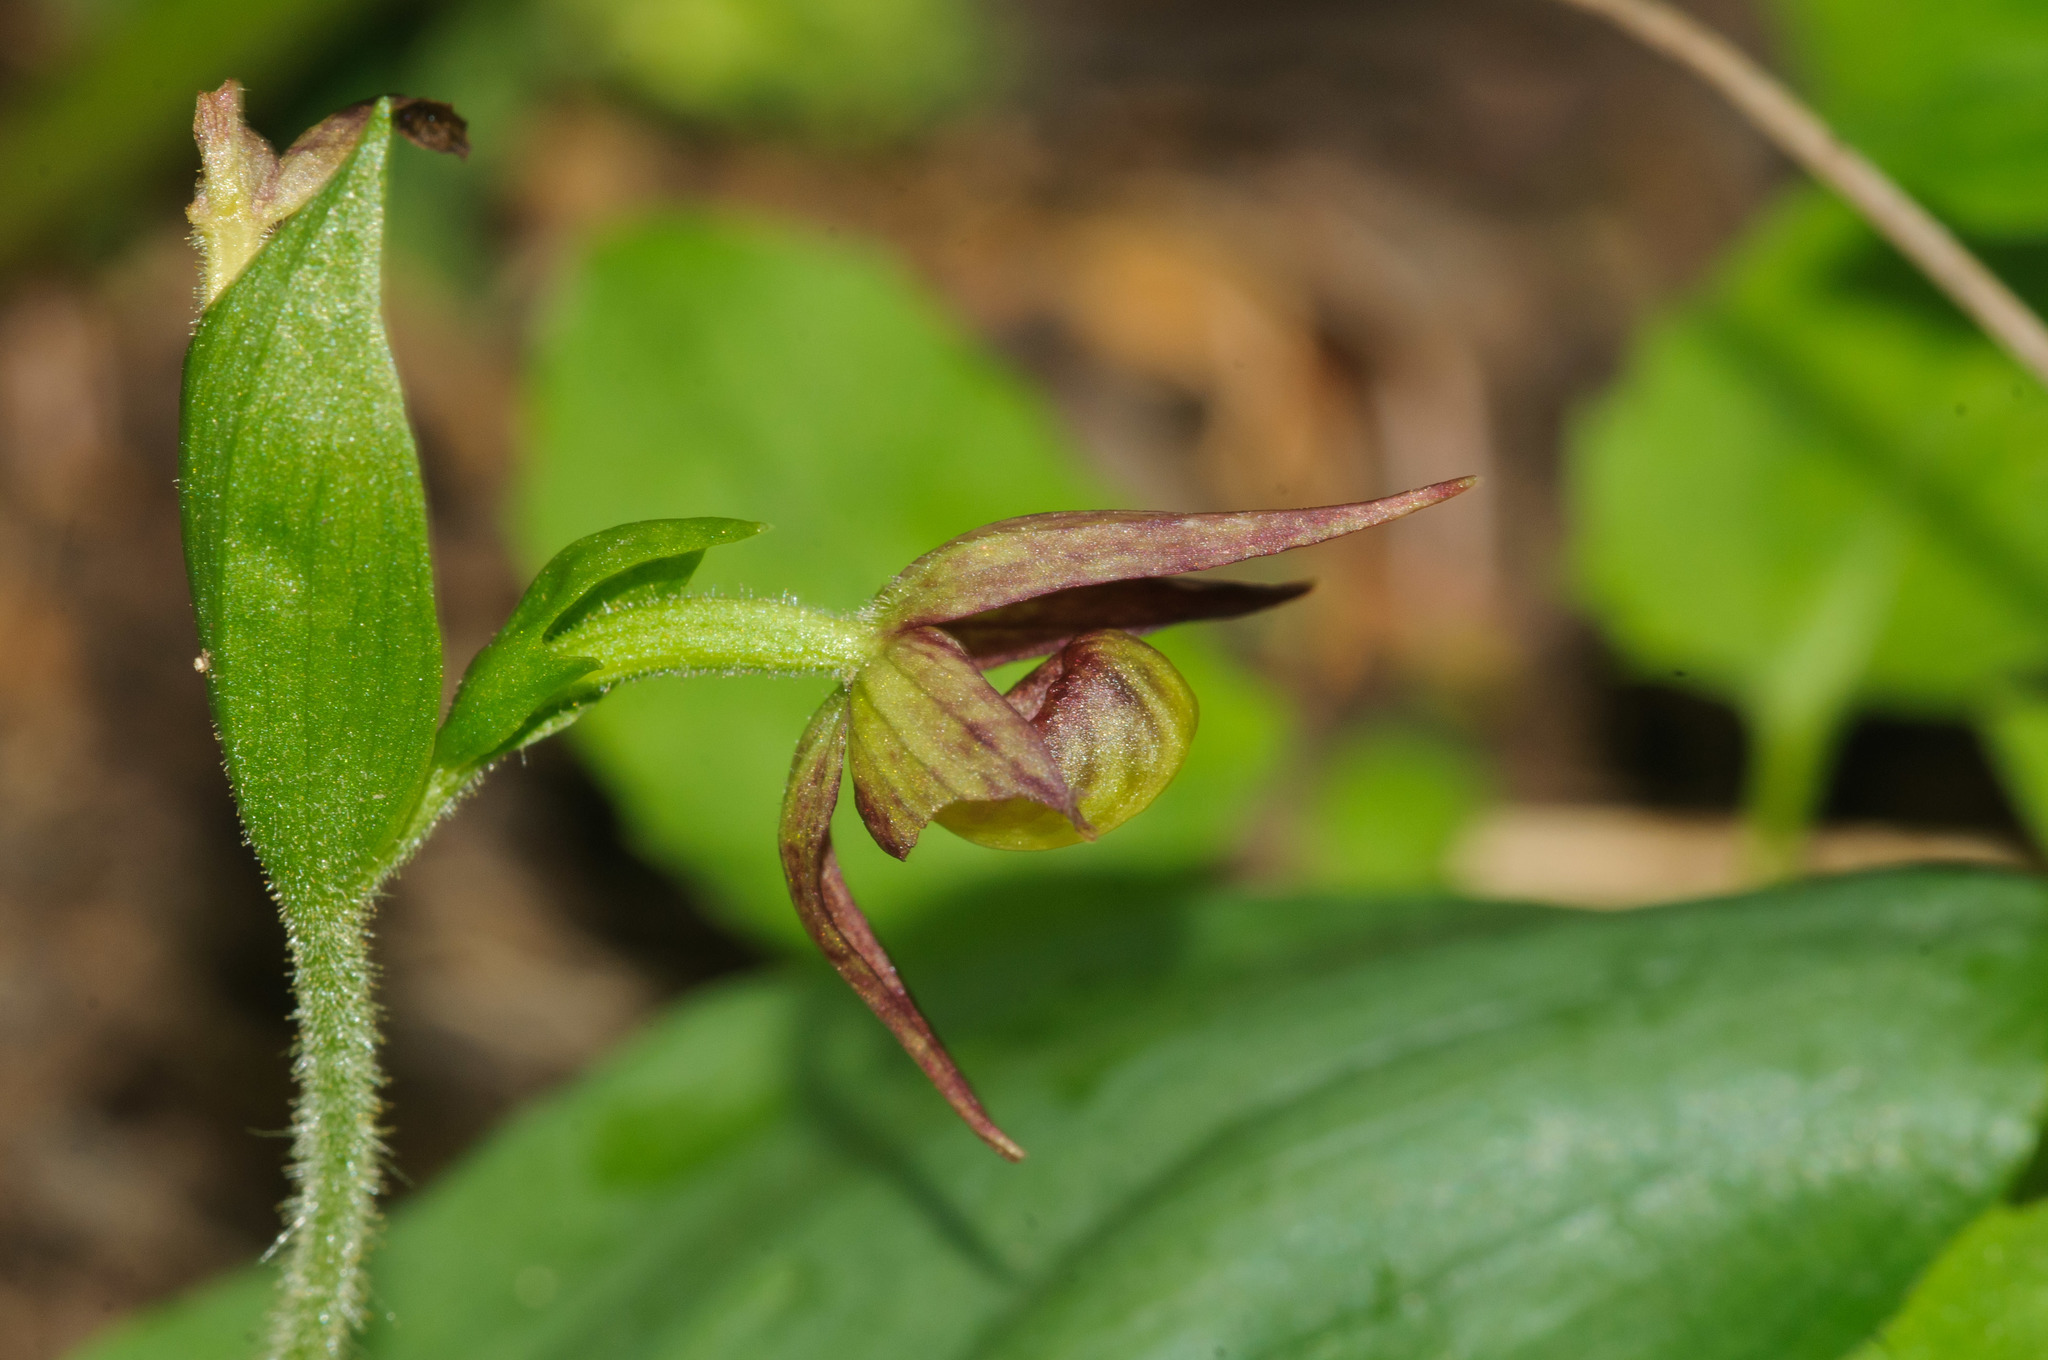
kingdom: Plantae
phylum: Tracheophyta
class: Liliopsida
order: Asparagales
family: Orchidaceae
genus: Cypripedium
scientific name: Cypripedium fasciculatum
